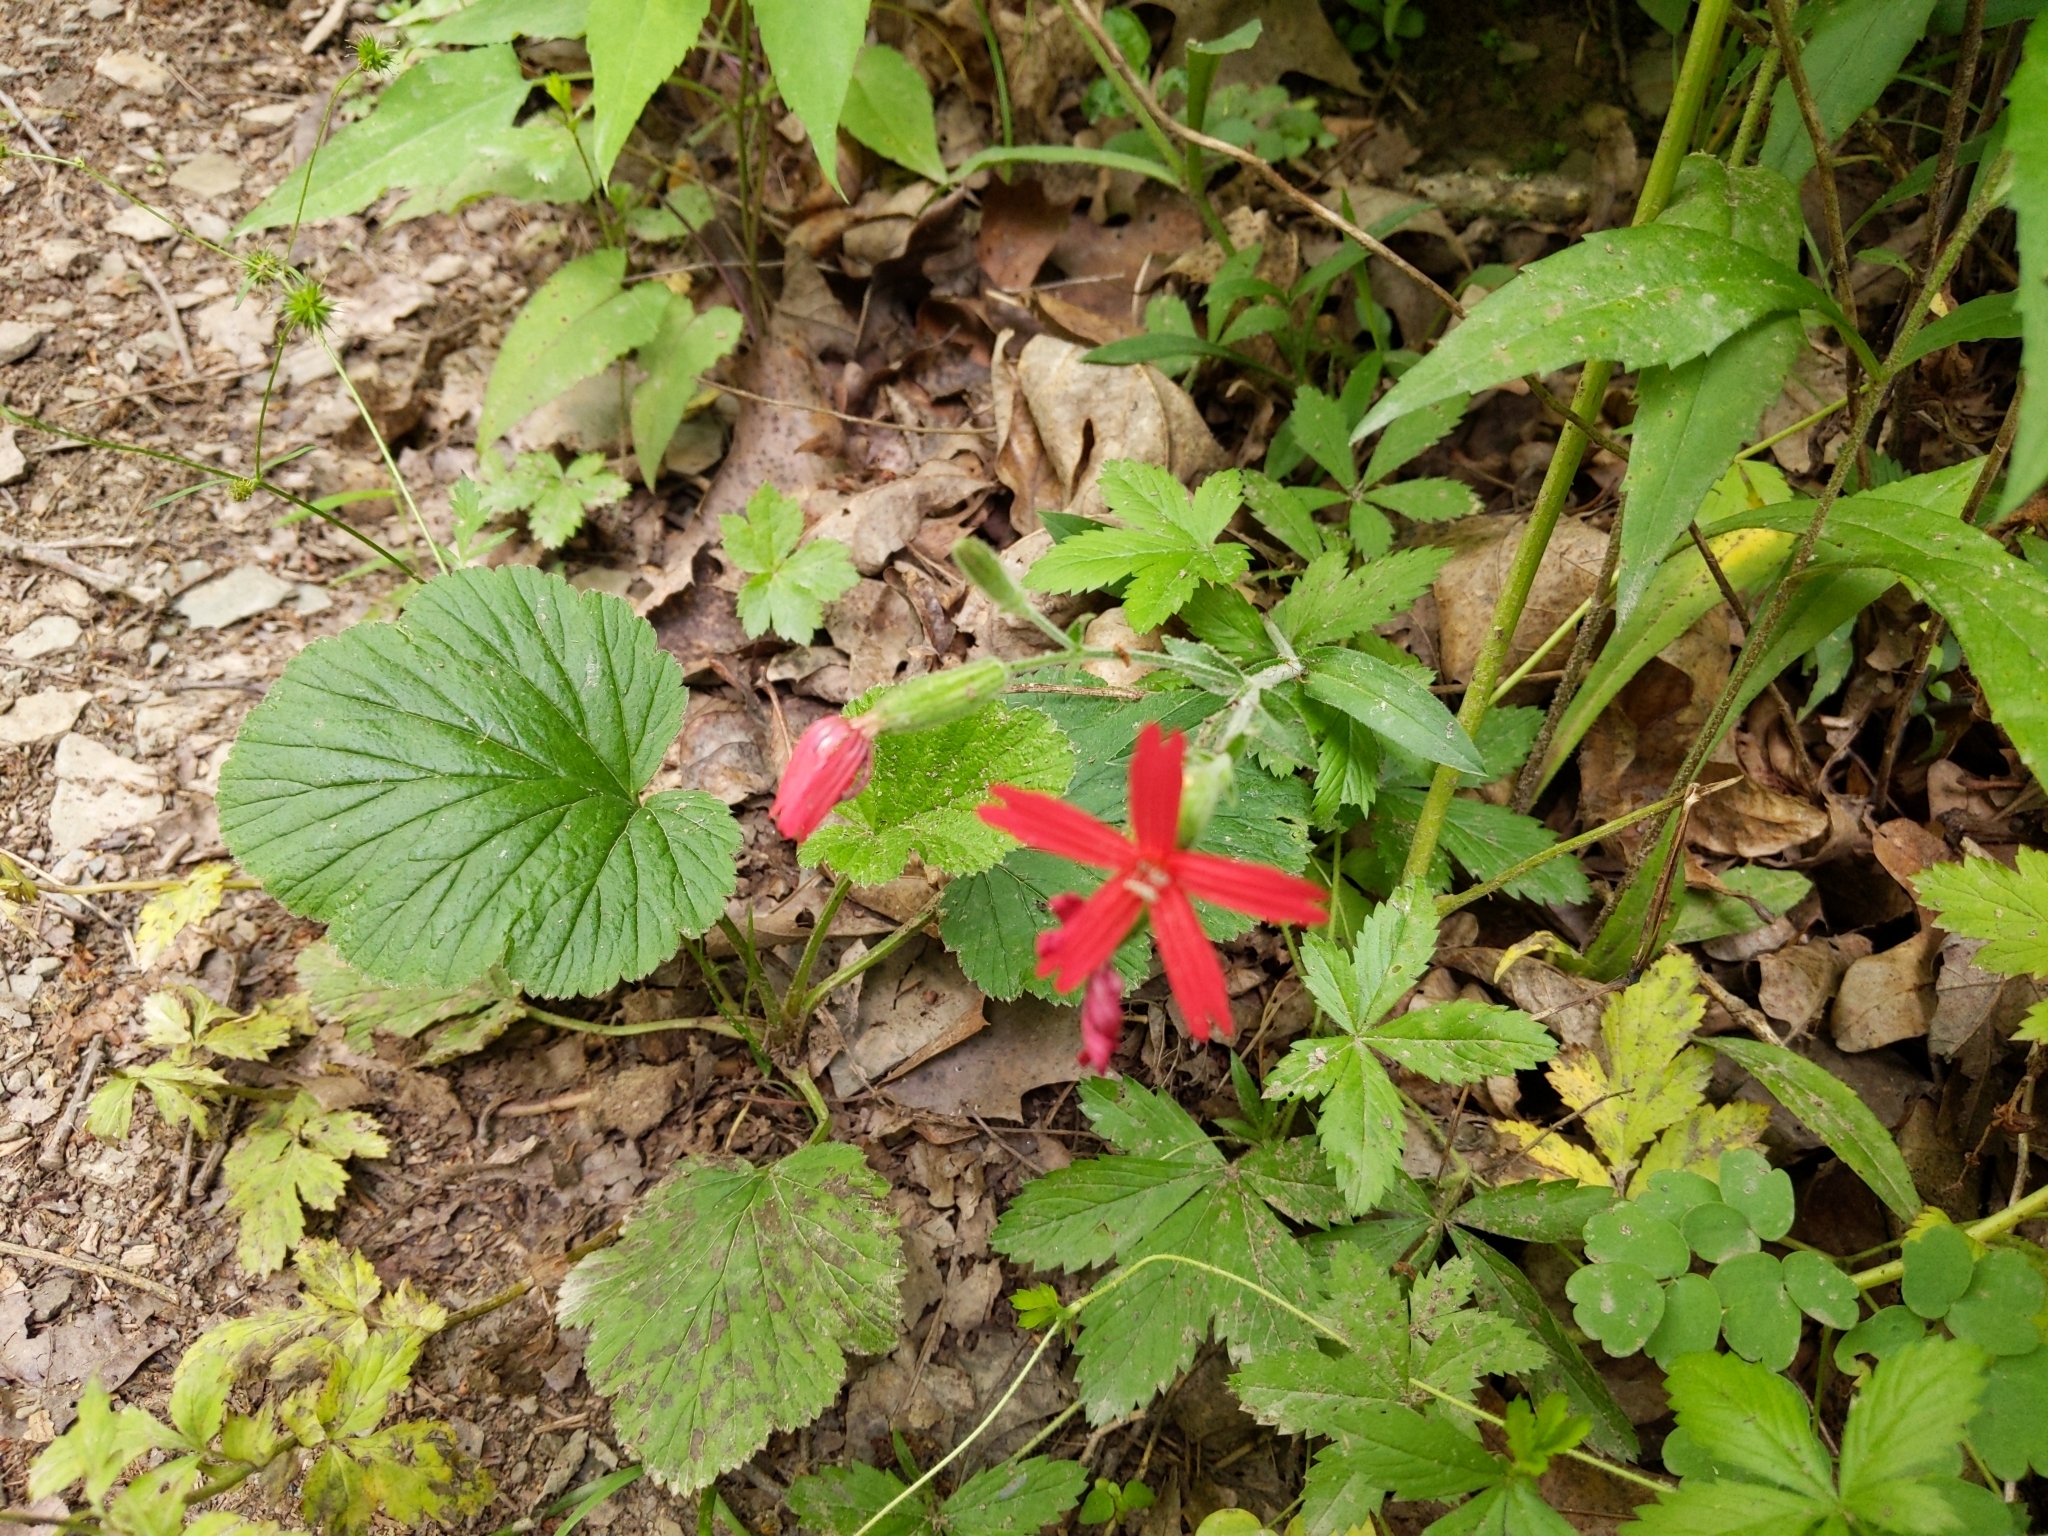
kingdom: Plantae
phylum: Tracheophyta
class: Magnoliopsida
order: Caryophyllales
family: Caryophyllaceae
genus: Silene
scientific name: Silene virginica
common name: Fire-pink
